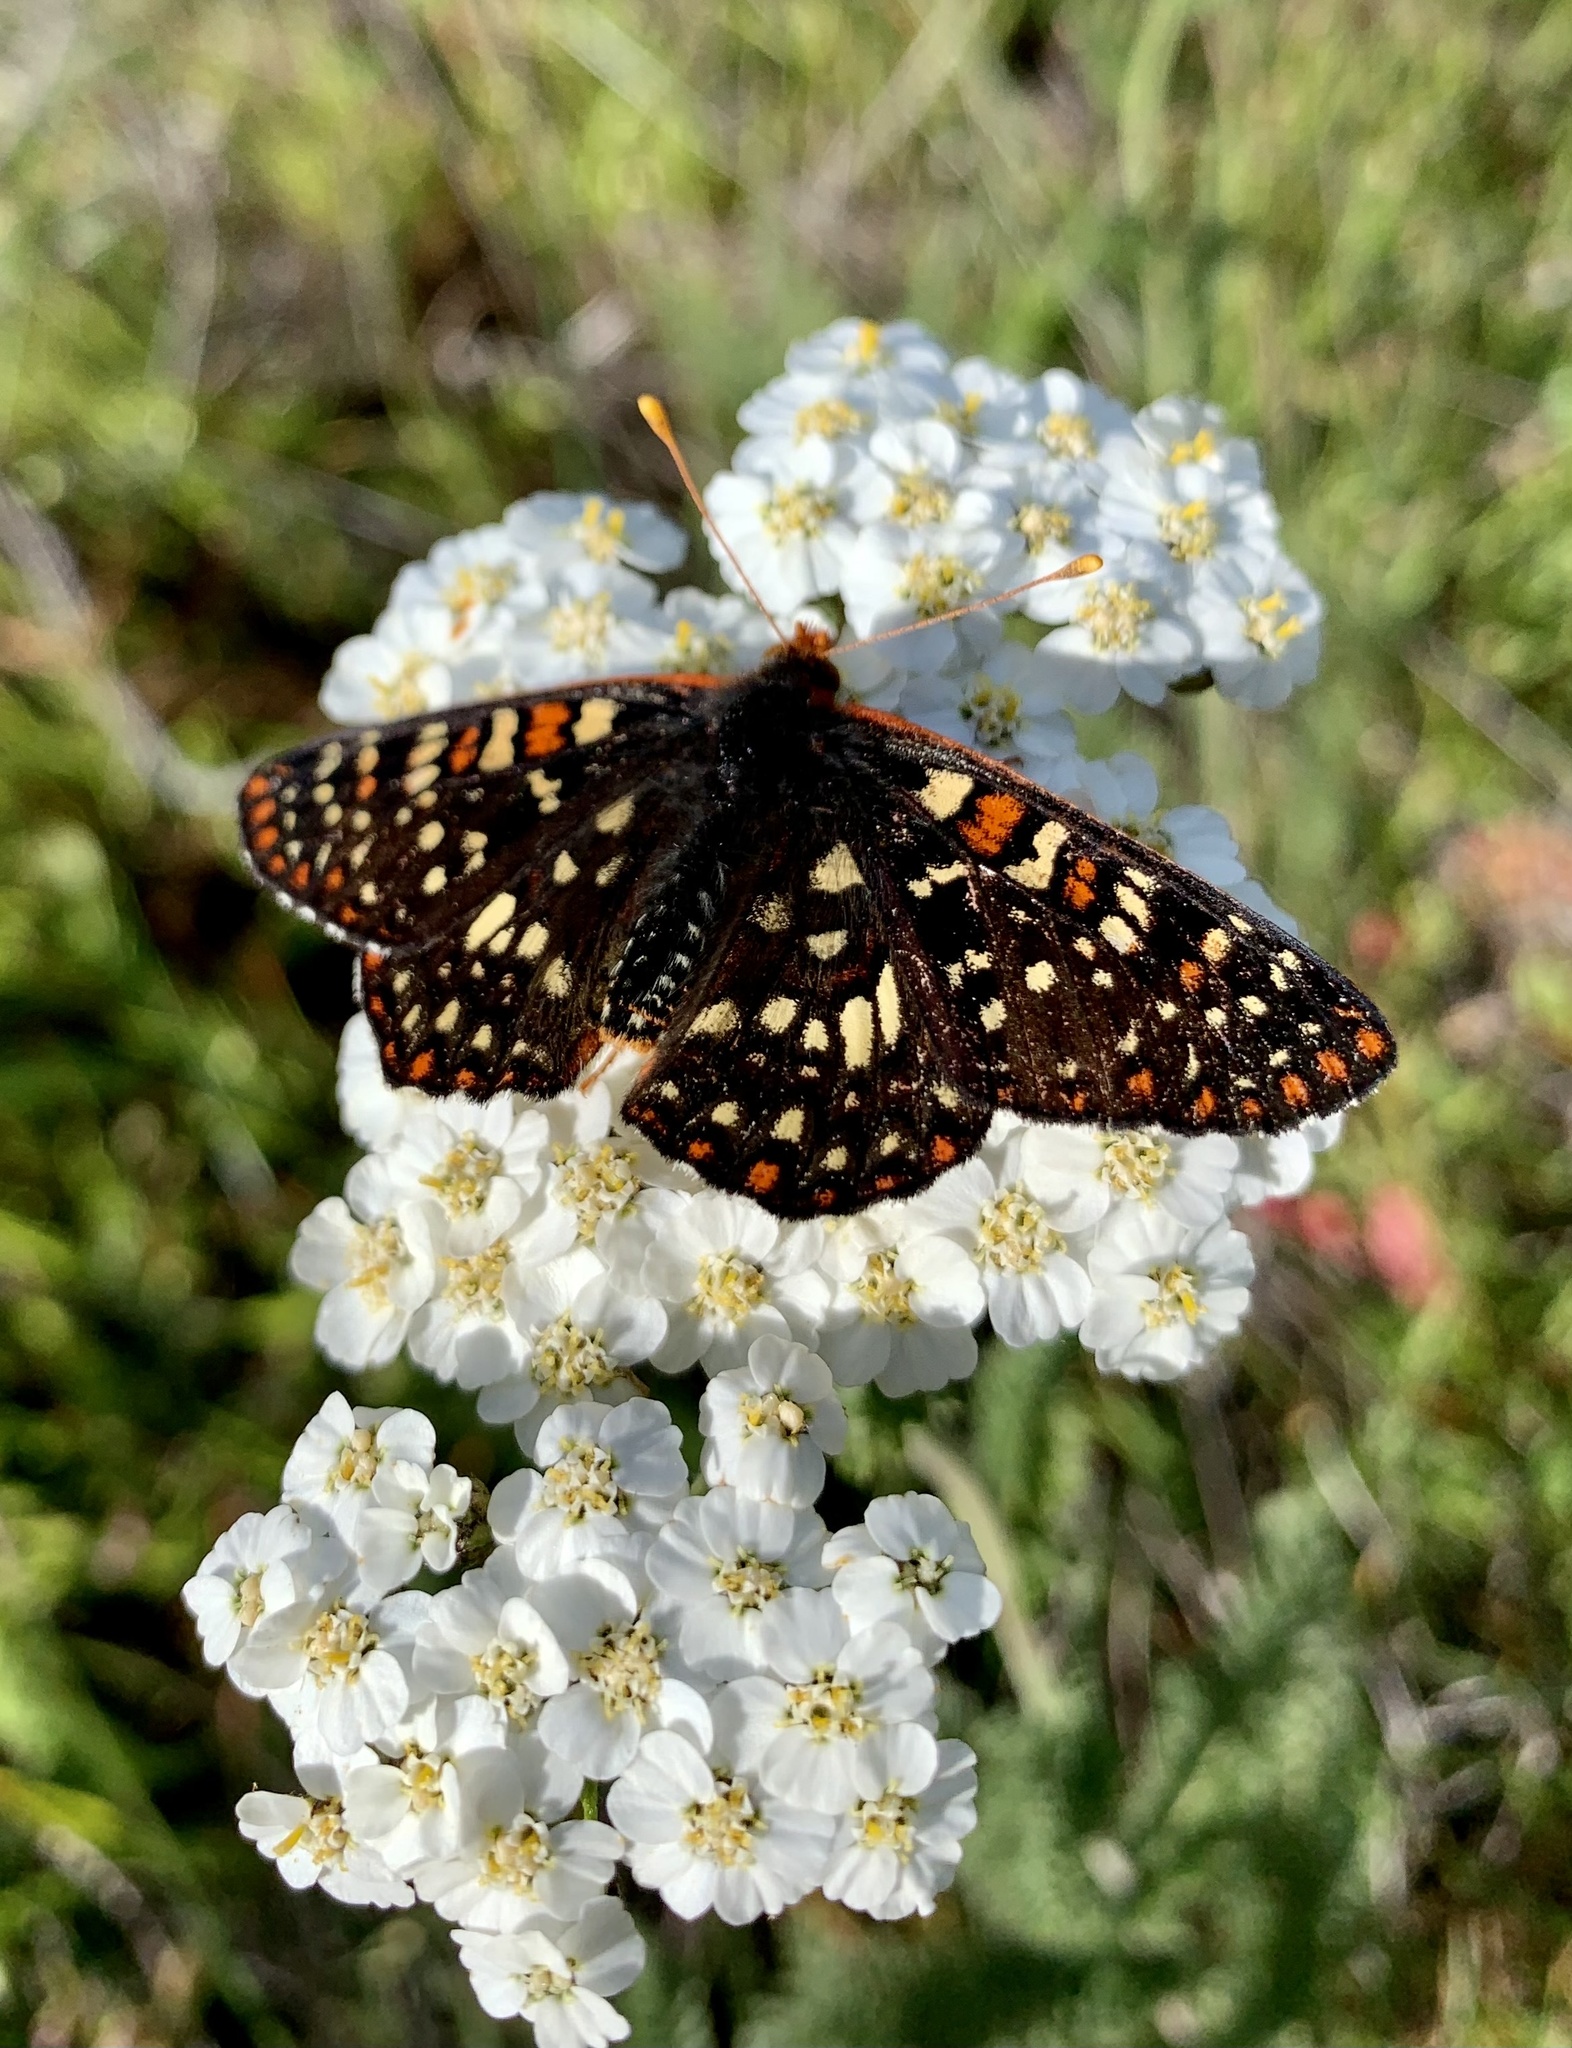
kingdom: Animalia
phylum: Arthropoda
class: Insecta
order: Lepidoptera
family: Nymphalidae
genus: Occidryas
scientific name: Occidryas chalcedona
